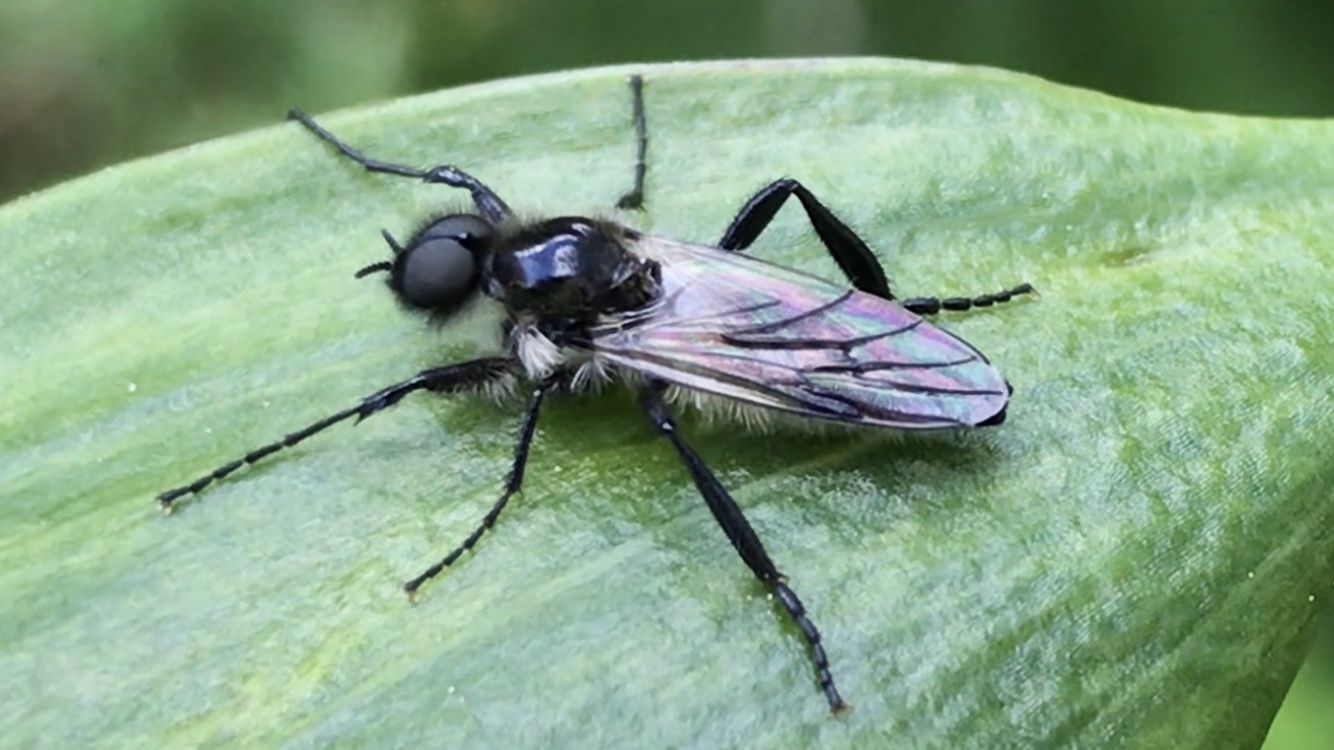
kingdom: Animalia
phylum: Arthropoda
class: Insecta
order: Diptera
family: Bibionidae
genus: Bibio
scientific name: Bibio albipennis
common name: White-winged march fly
